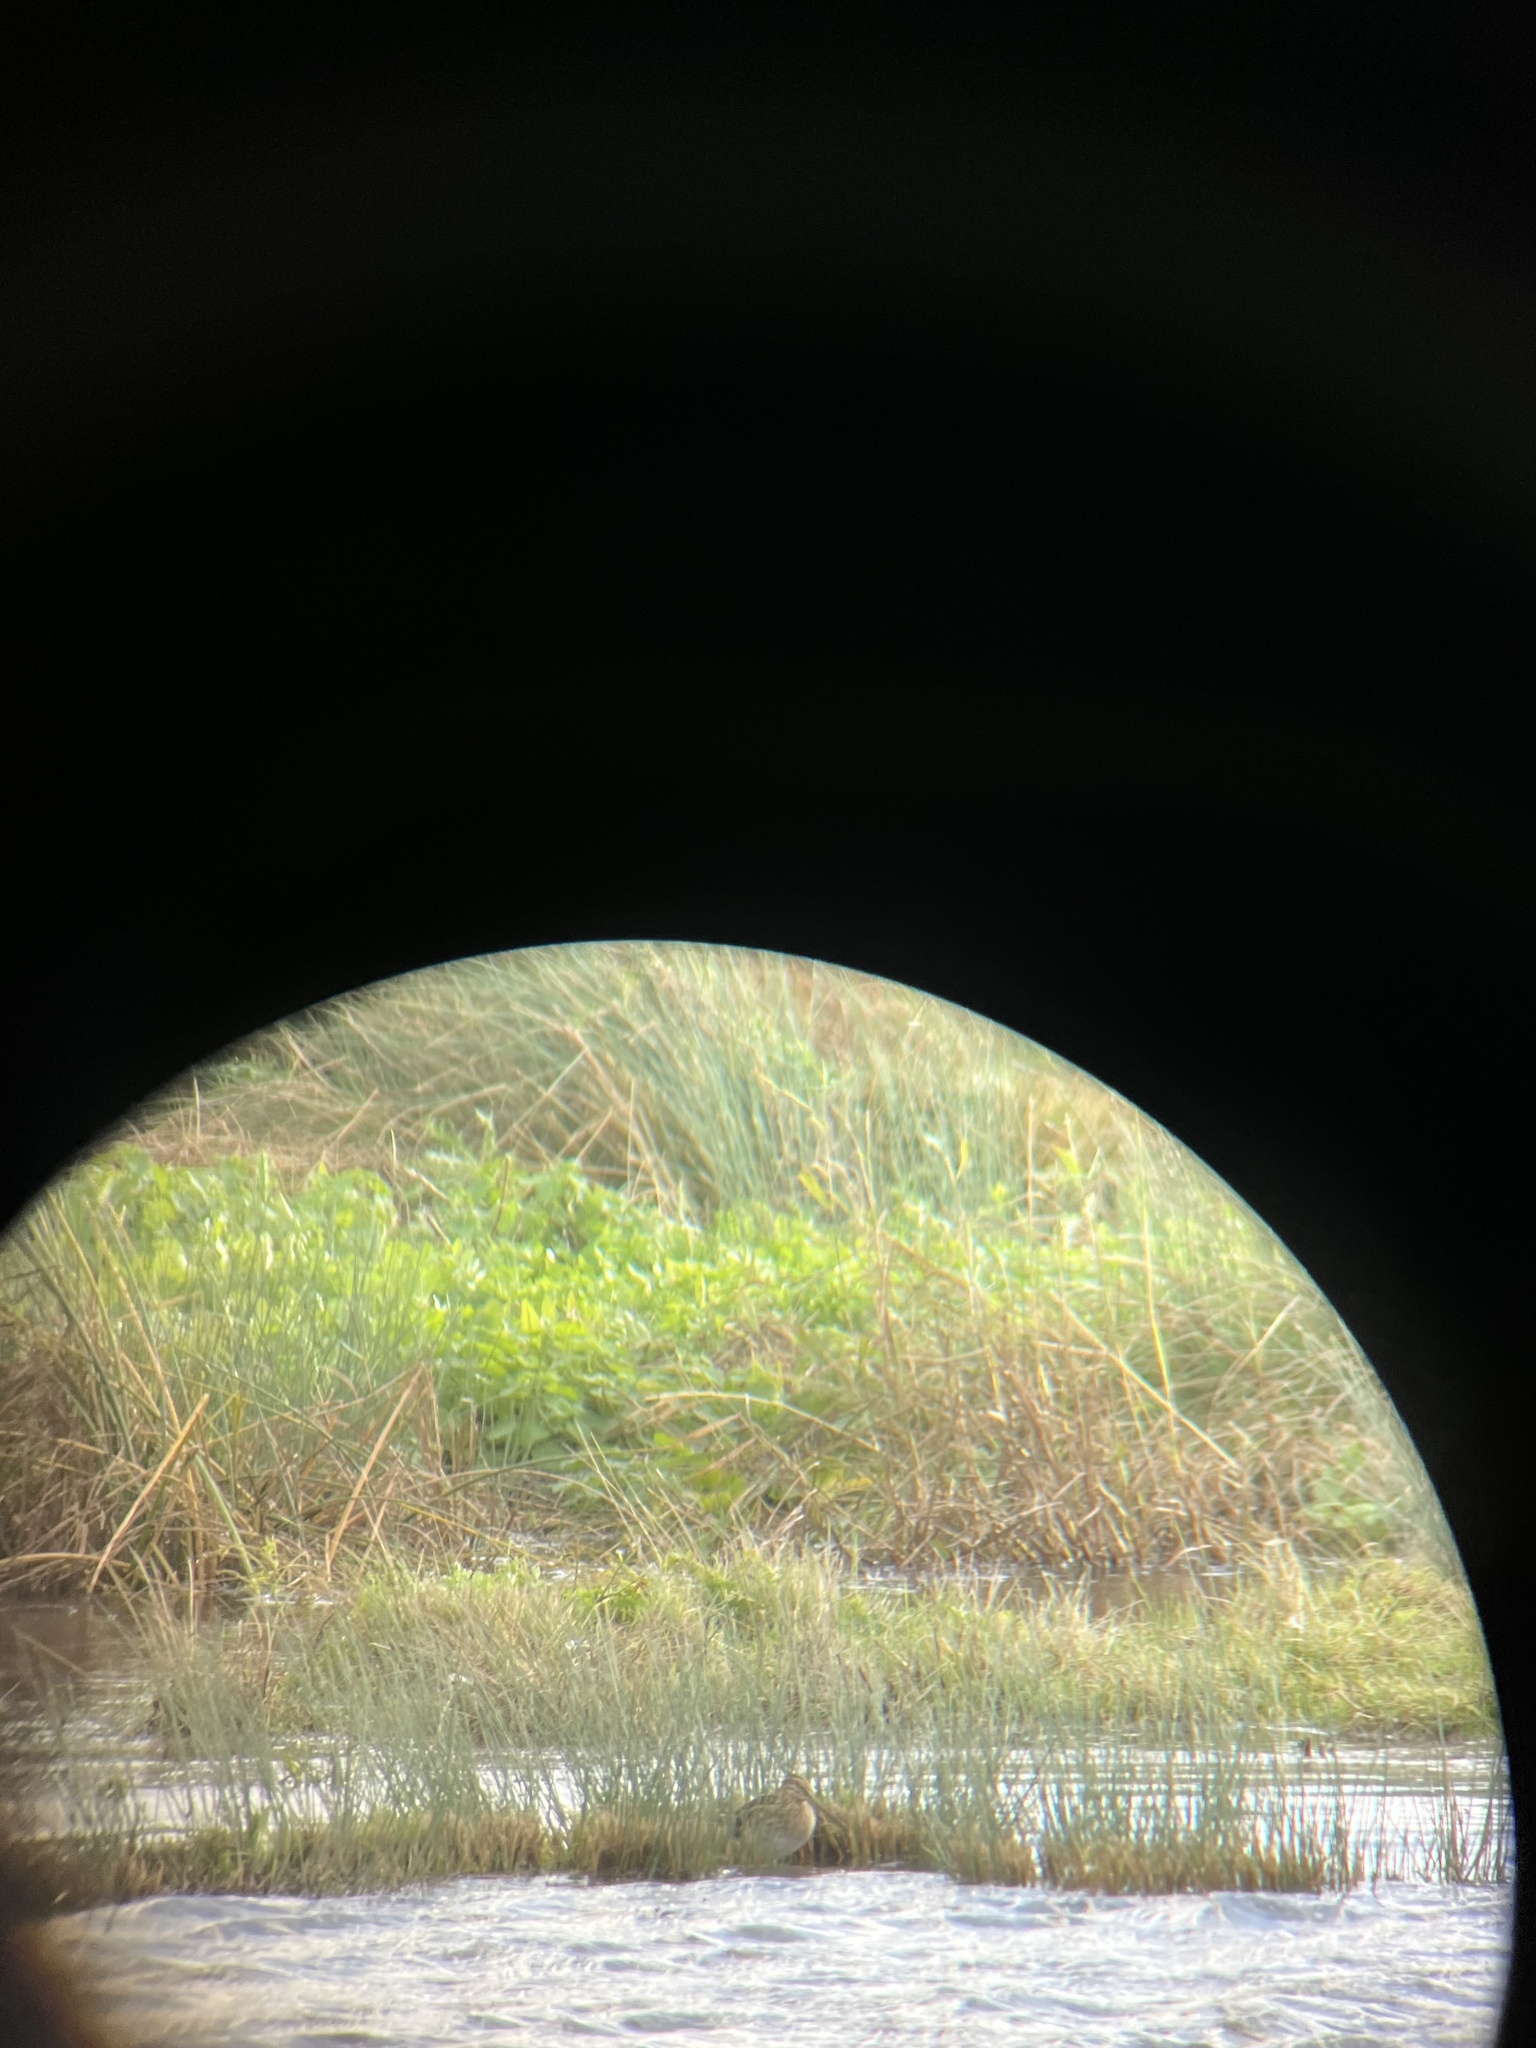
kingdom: Animalia
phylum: Chordata
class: Aves
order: Charadriiformes
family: Scolopacidae
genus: Gallinago
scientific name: Gallinago gallinago
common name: Common snipe
